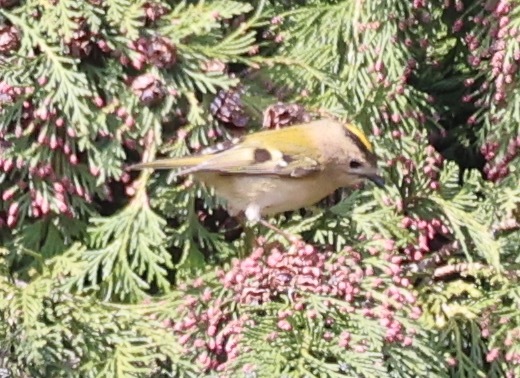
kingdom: Animalia
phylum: Chordata
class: Aves
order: Passeriformes
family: Regulidae
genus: Regulus
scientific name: Regulus regulus
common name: Goldcrest
